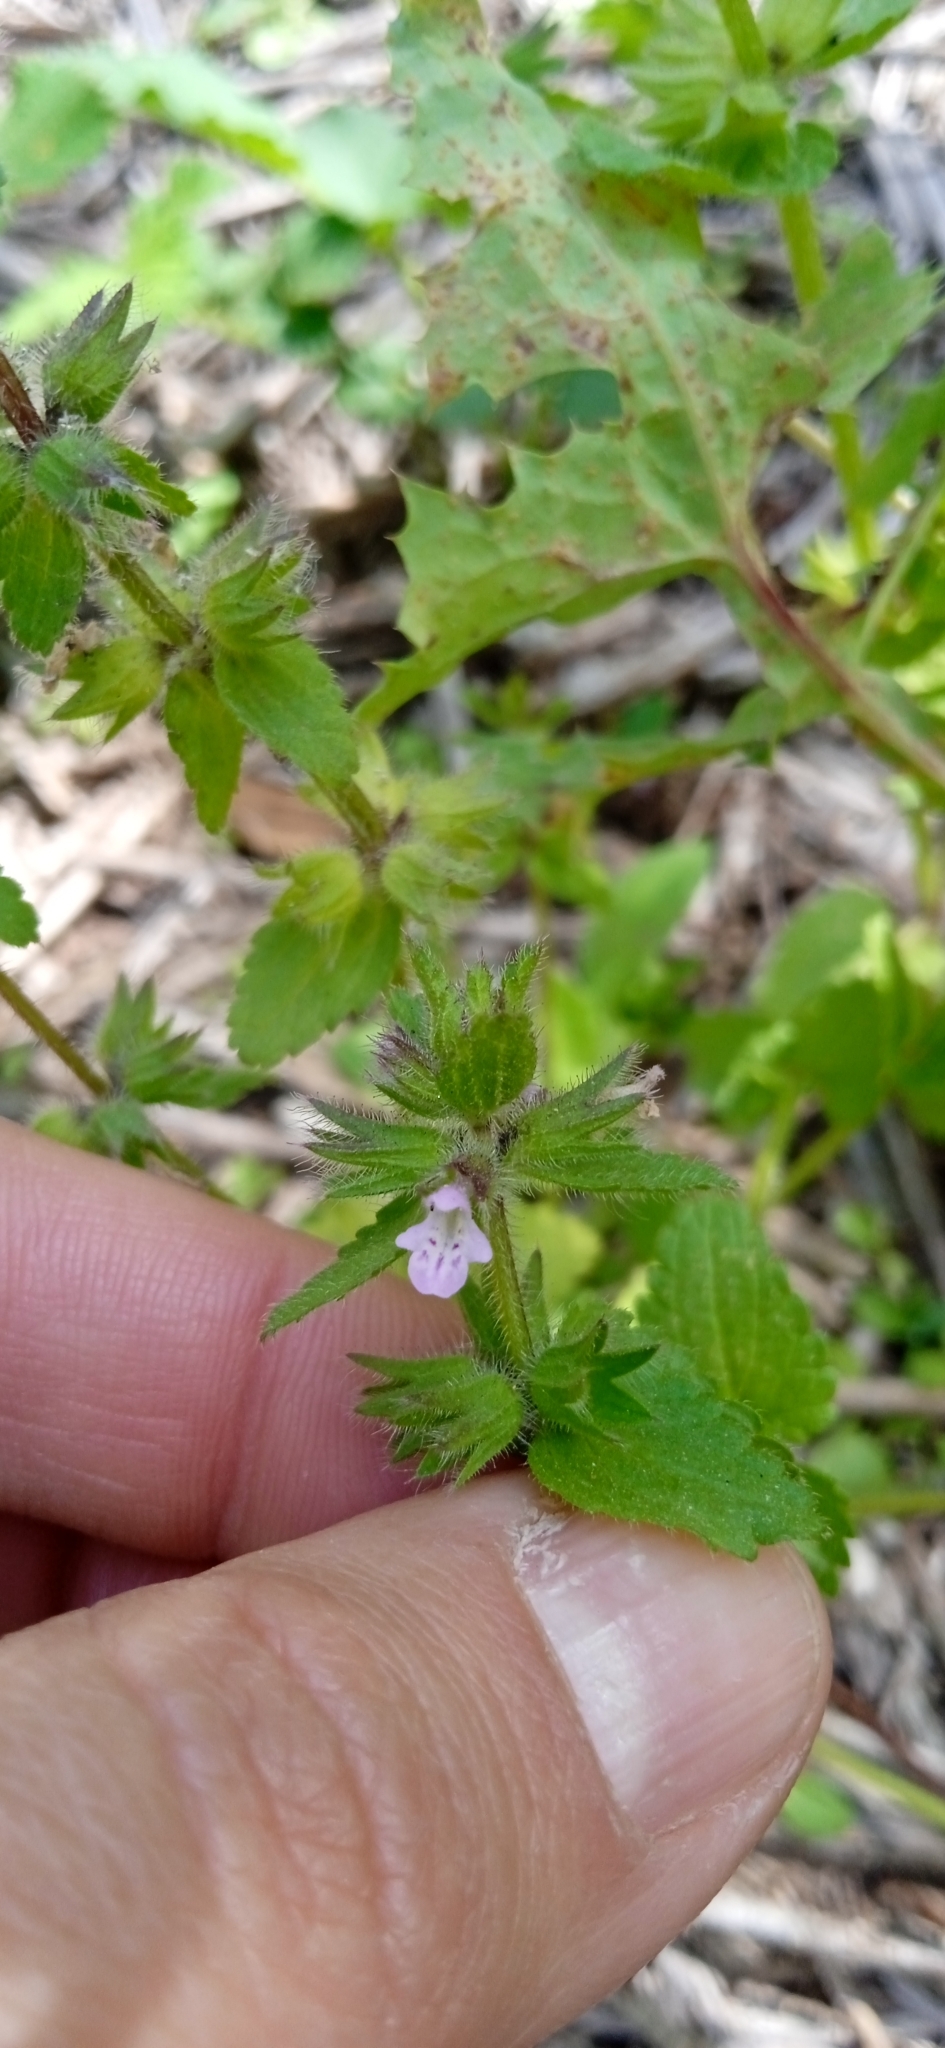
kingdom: Plantae
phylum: Tracheophyta
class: Magnoliopsida
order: Lamiales
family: Lamiaceae
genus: Stachys
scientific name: Stachys arvensis
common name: Field woundwort
